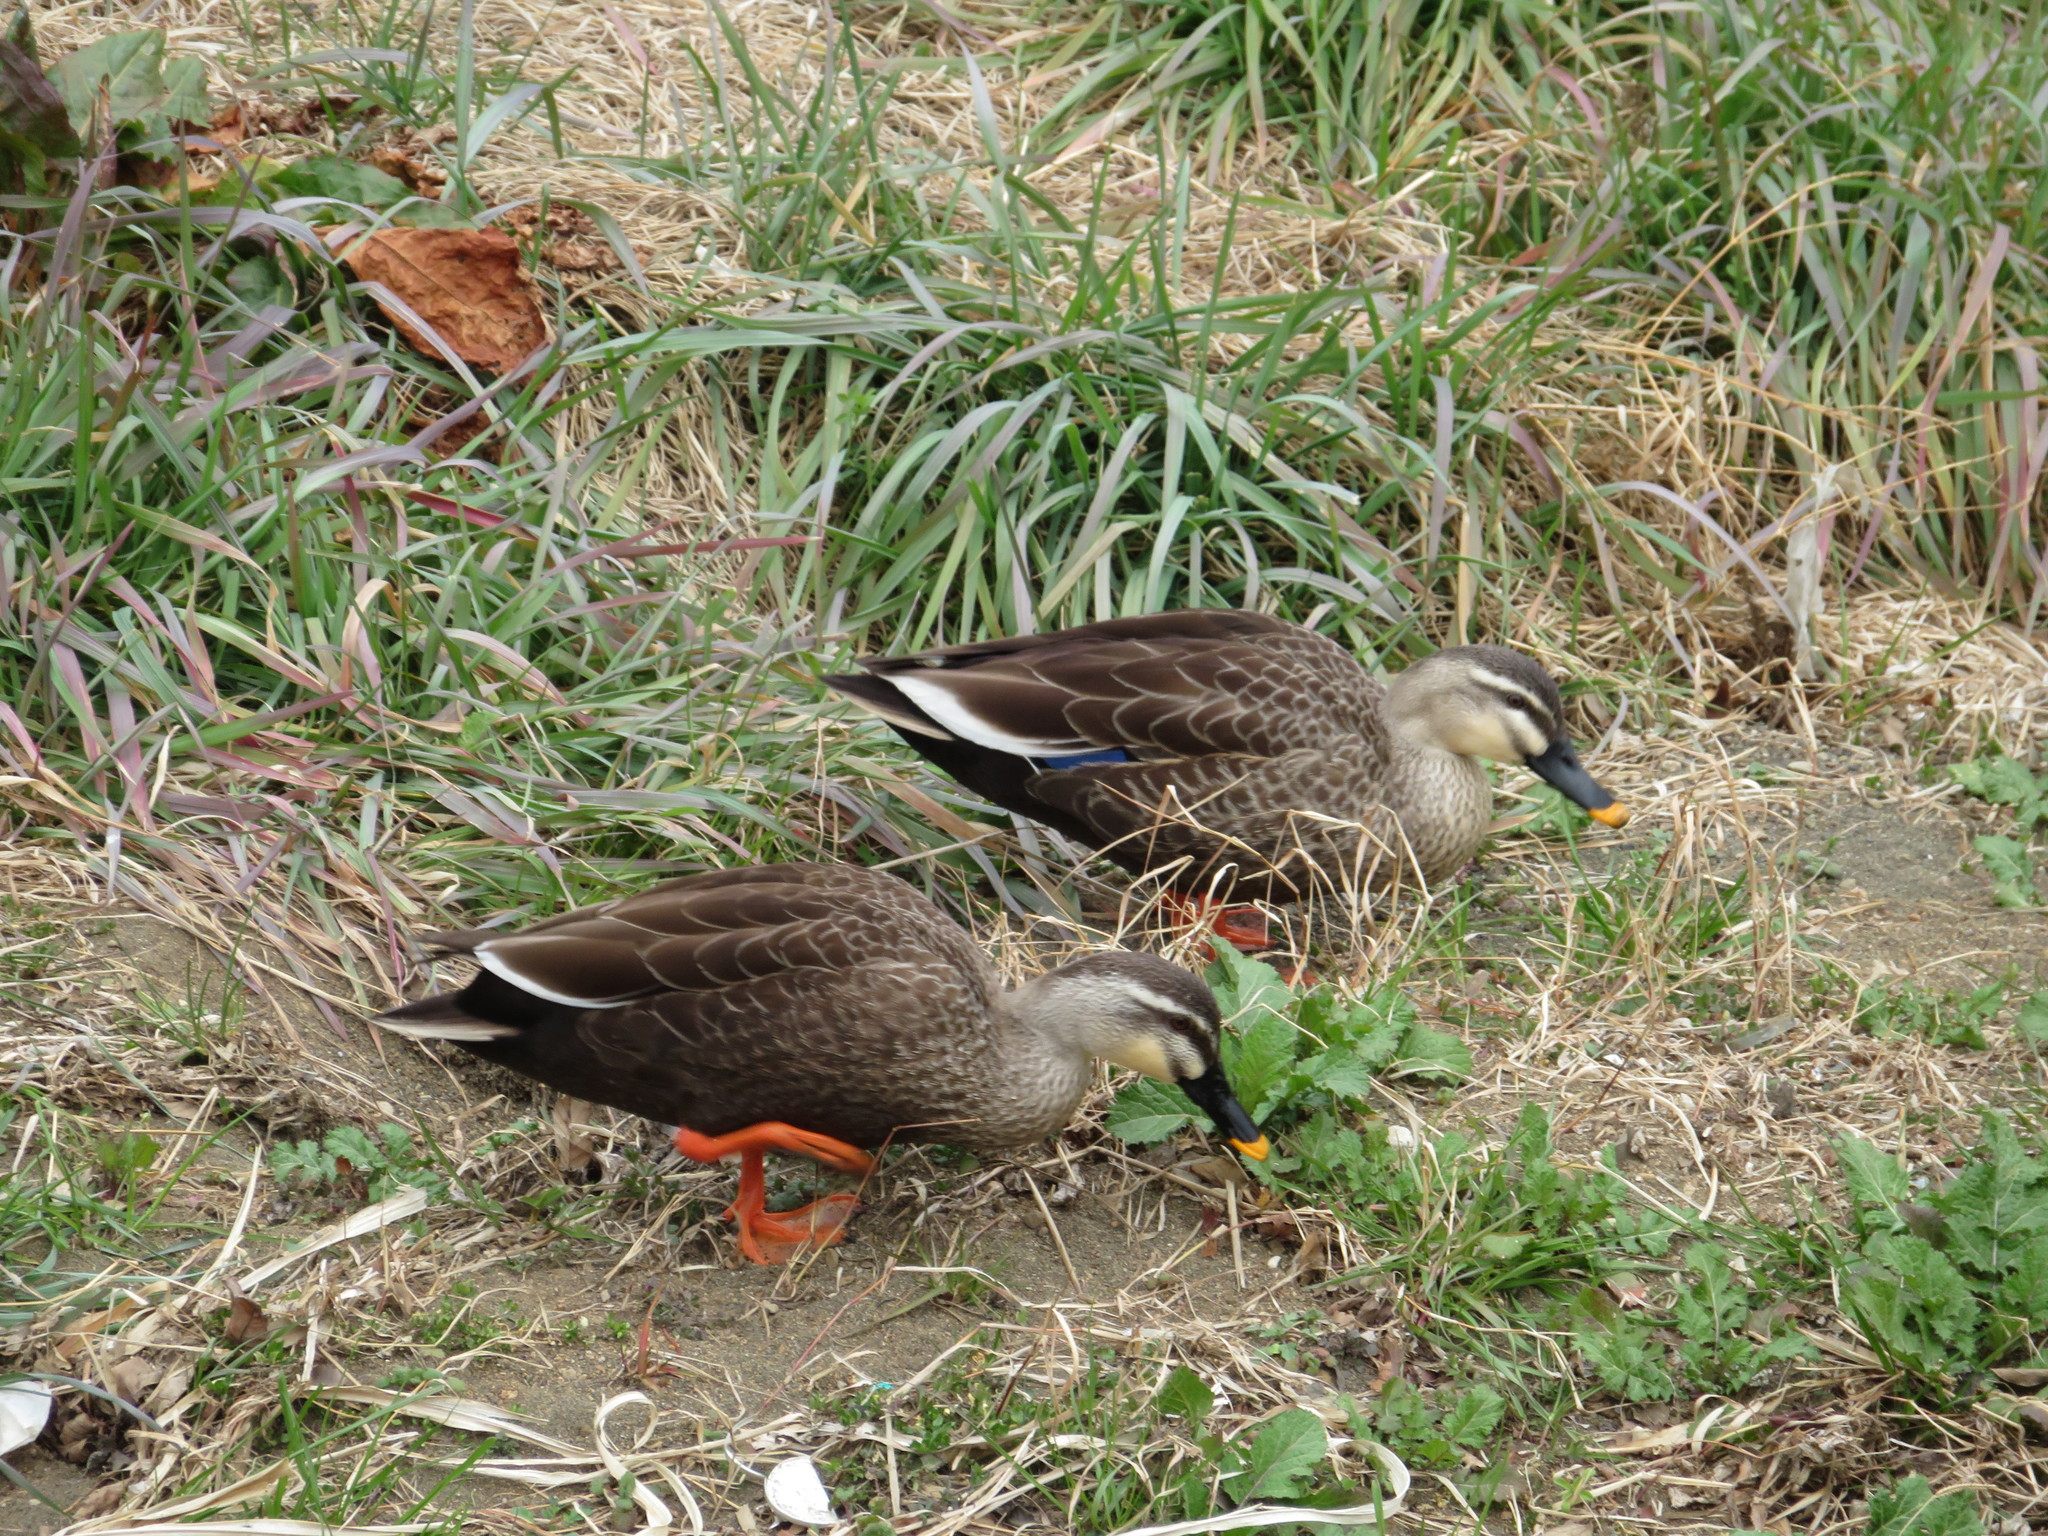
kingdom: Animalia
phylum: Chordata
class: Aves
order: Anseriformes
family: Anatidae
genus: Anas
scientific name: Anas zonorhyncha
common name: Eastern spot-billed duck
